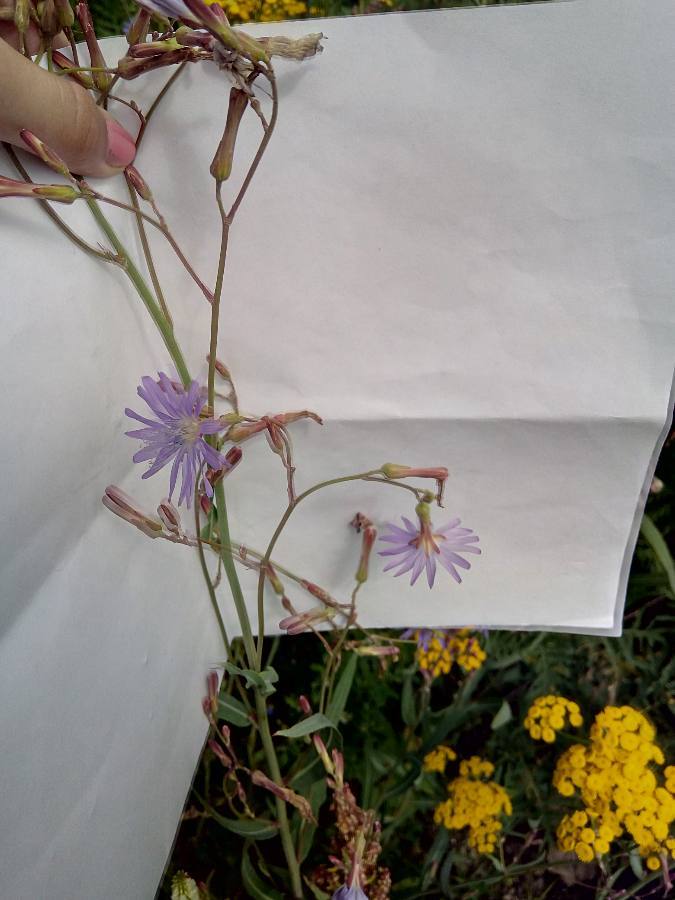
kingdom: Plantae
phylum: Tracheophyta
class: Magnoliopsida
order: Asterales
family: Asteraceae
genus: Lactuca
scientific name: Lactuca tatarica
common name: Blue lettuce
